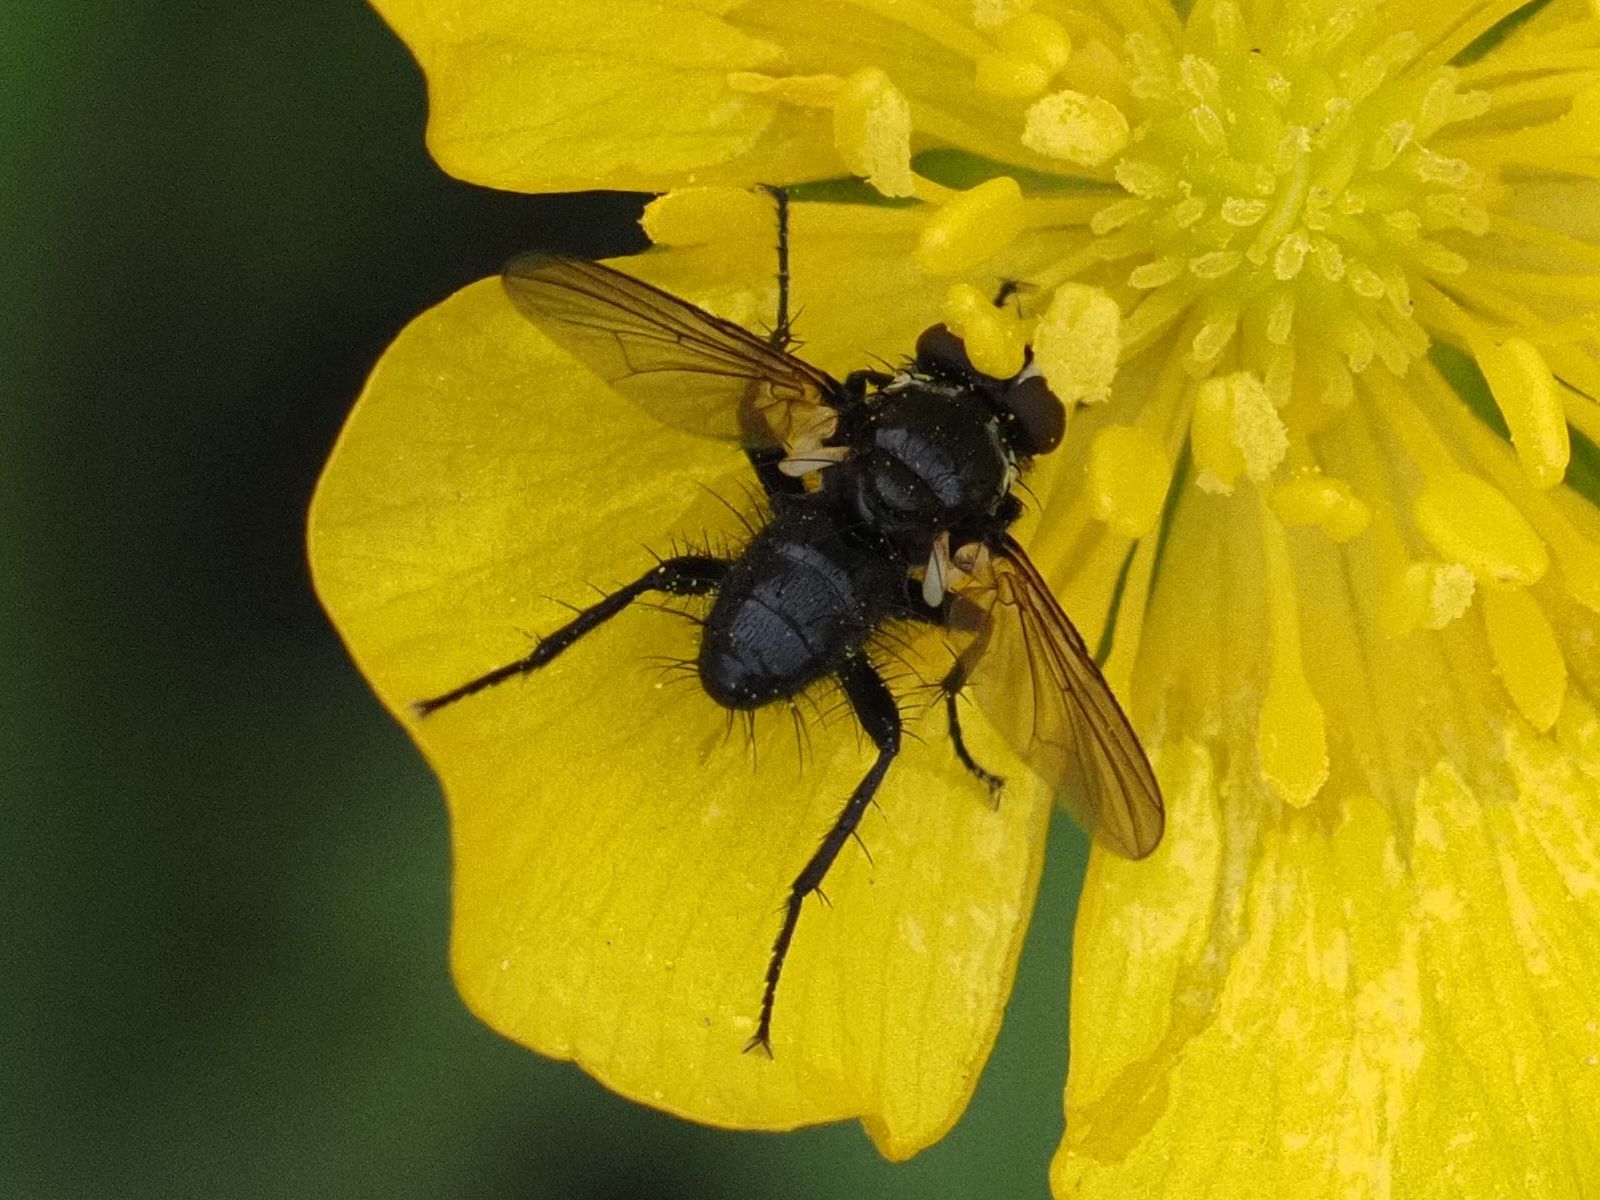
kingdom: Animalia
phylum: Arthropoda
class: Insecta
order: Diptera
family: Tachinidae
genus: Phania
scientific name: Phania funesta
